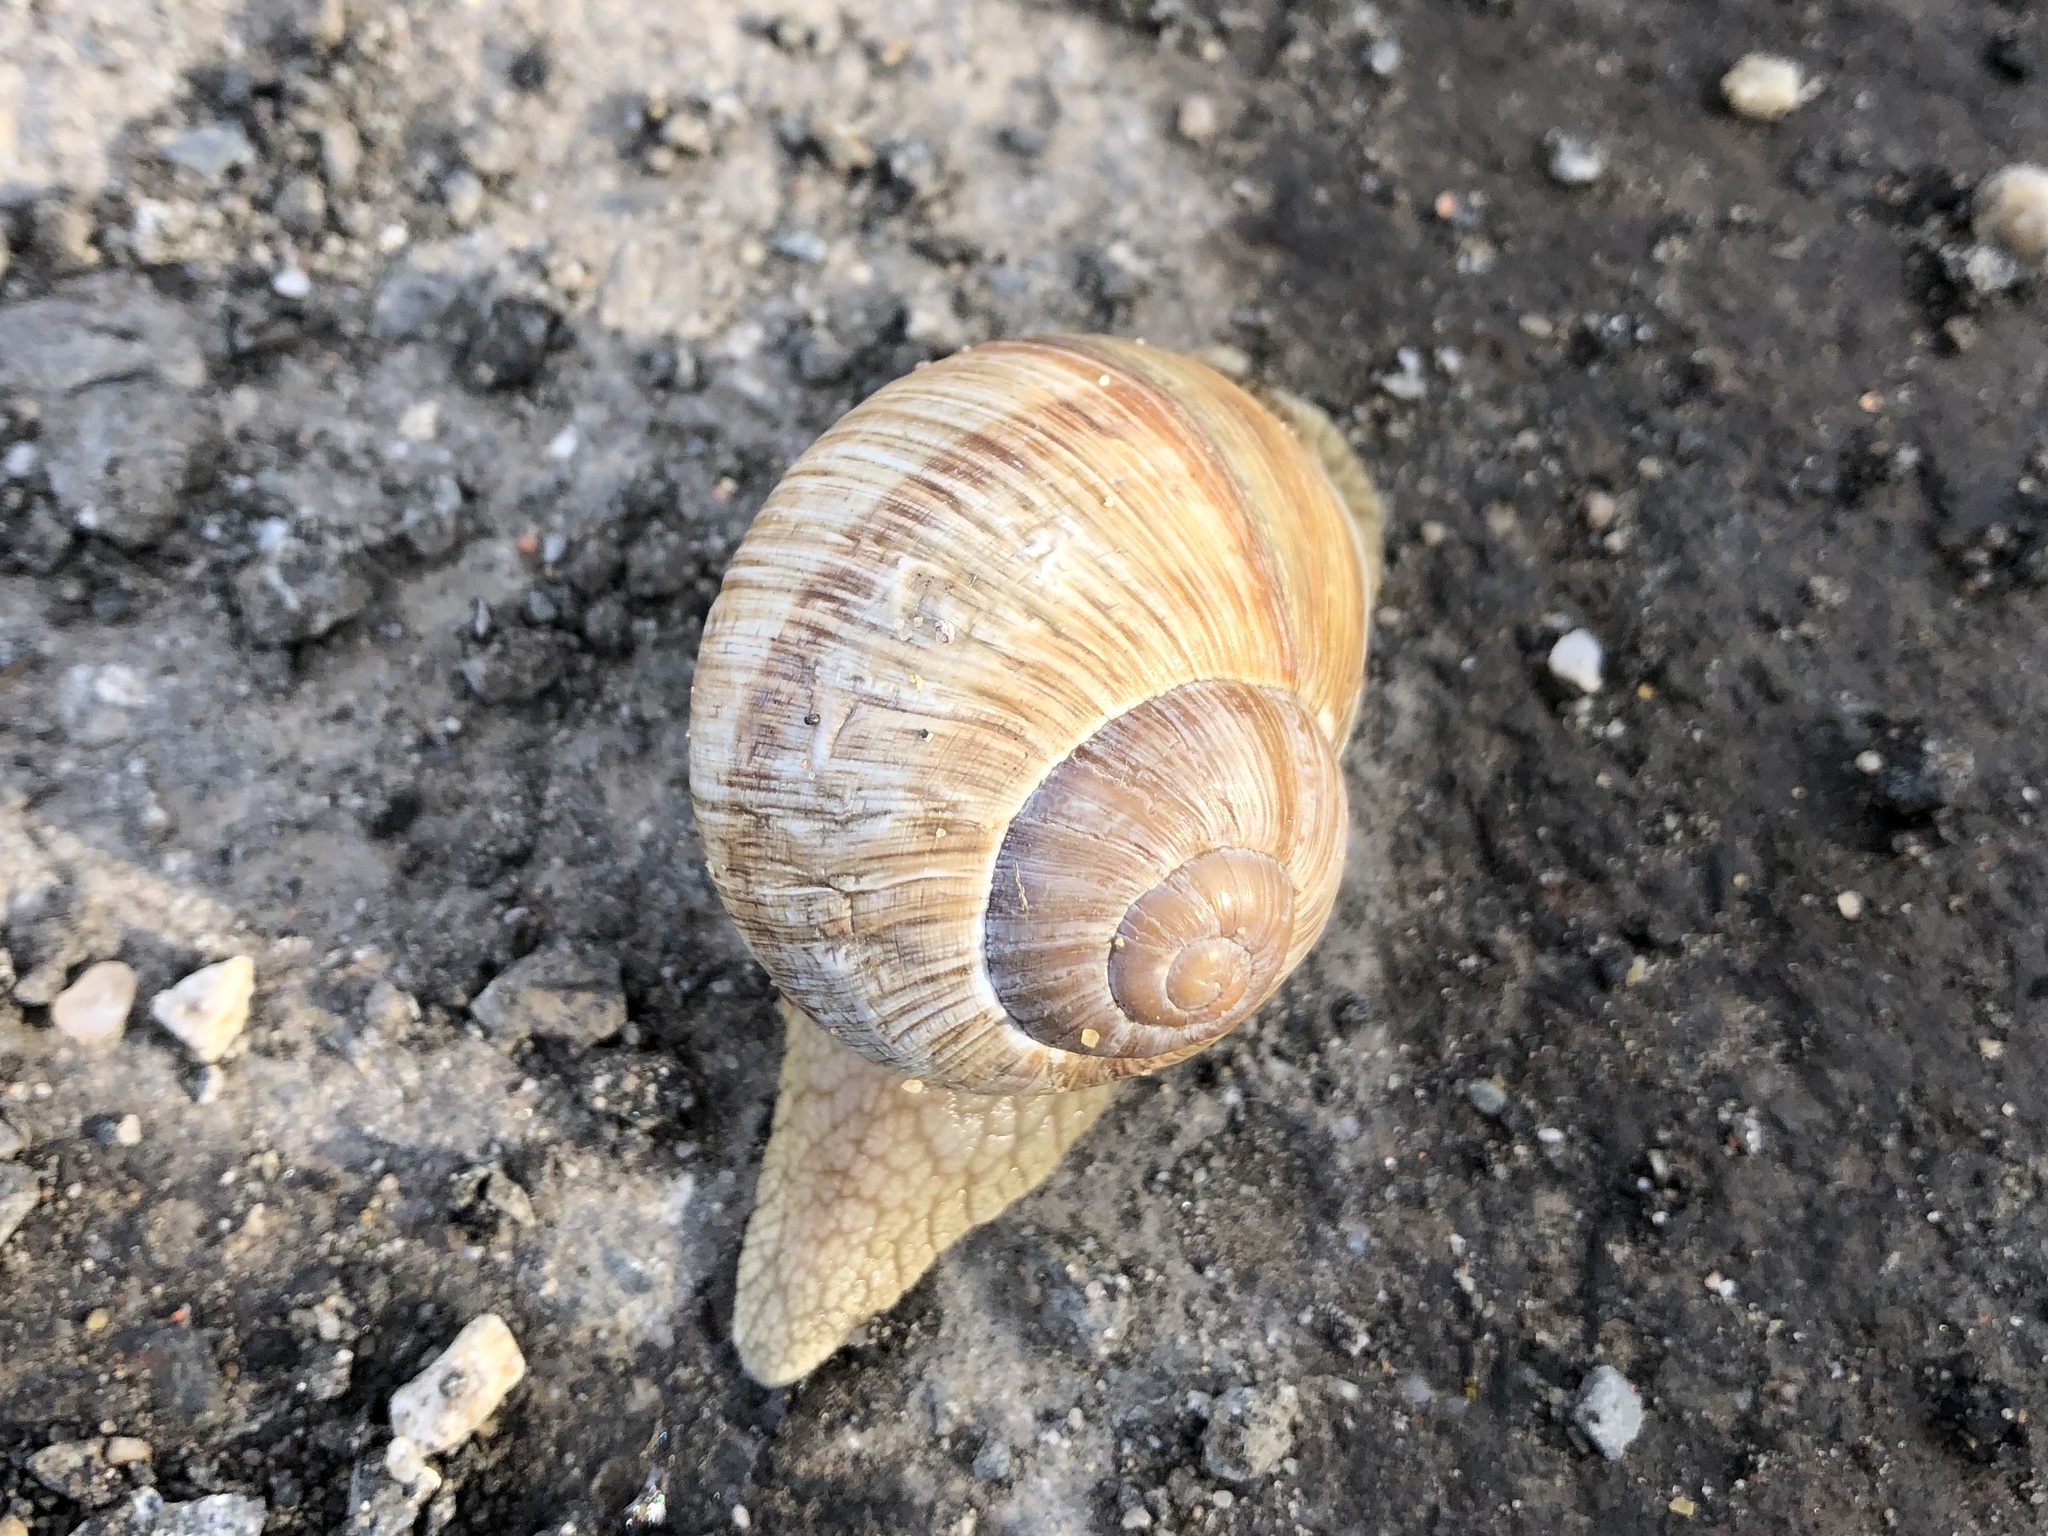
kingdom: Animalia
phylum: Mollusca
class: Gastropoda
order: Stylommatophora
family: Helicidae
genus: Helix
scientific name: Helix pomatia
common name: Roman snail
